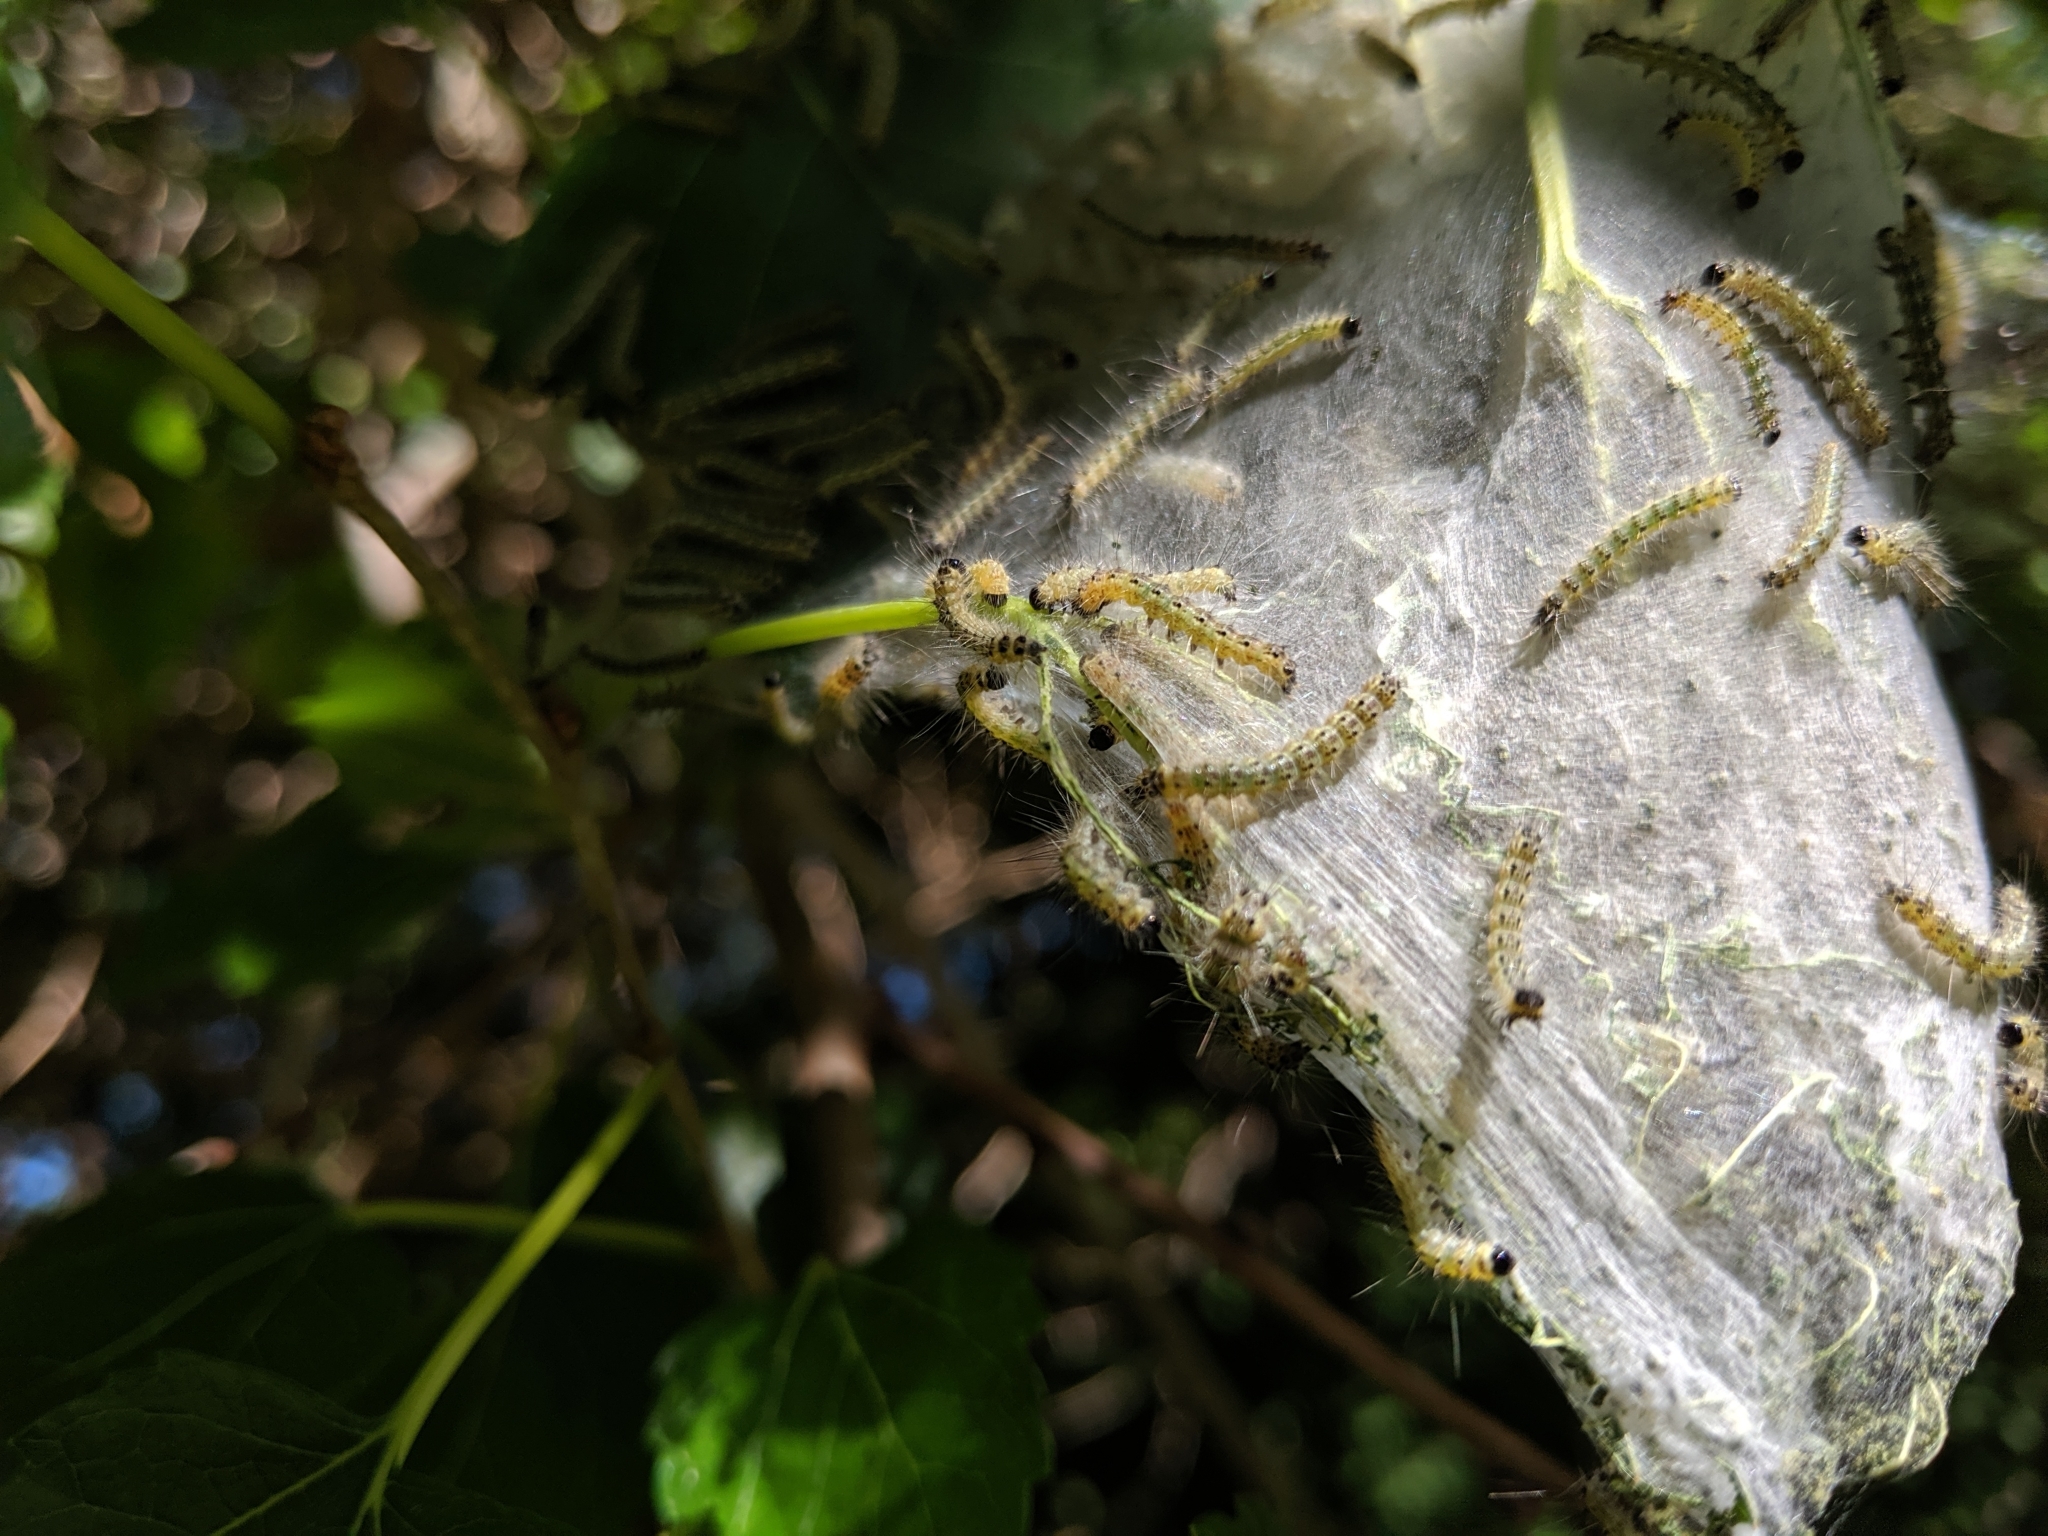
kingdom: Animalia
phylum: Arthropoda
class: Insecta
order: Lepidoptera
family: Erebidae
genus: Hyphantria
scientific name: Hyphantria cunea
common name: American white moth
